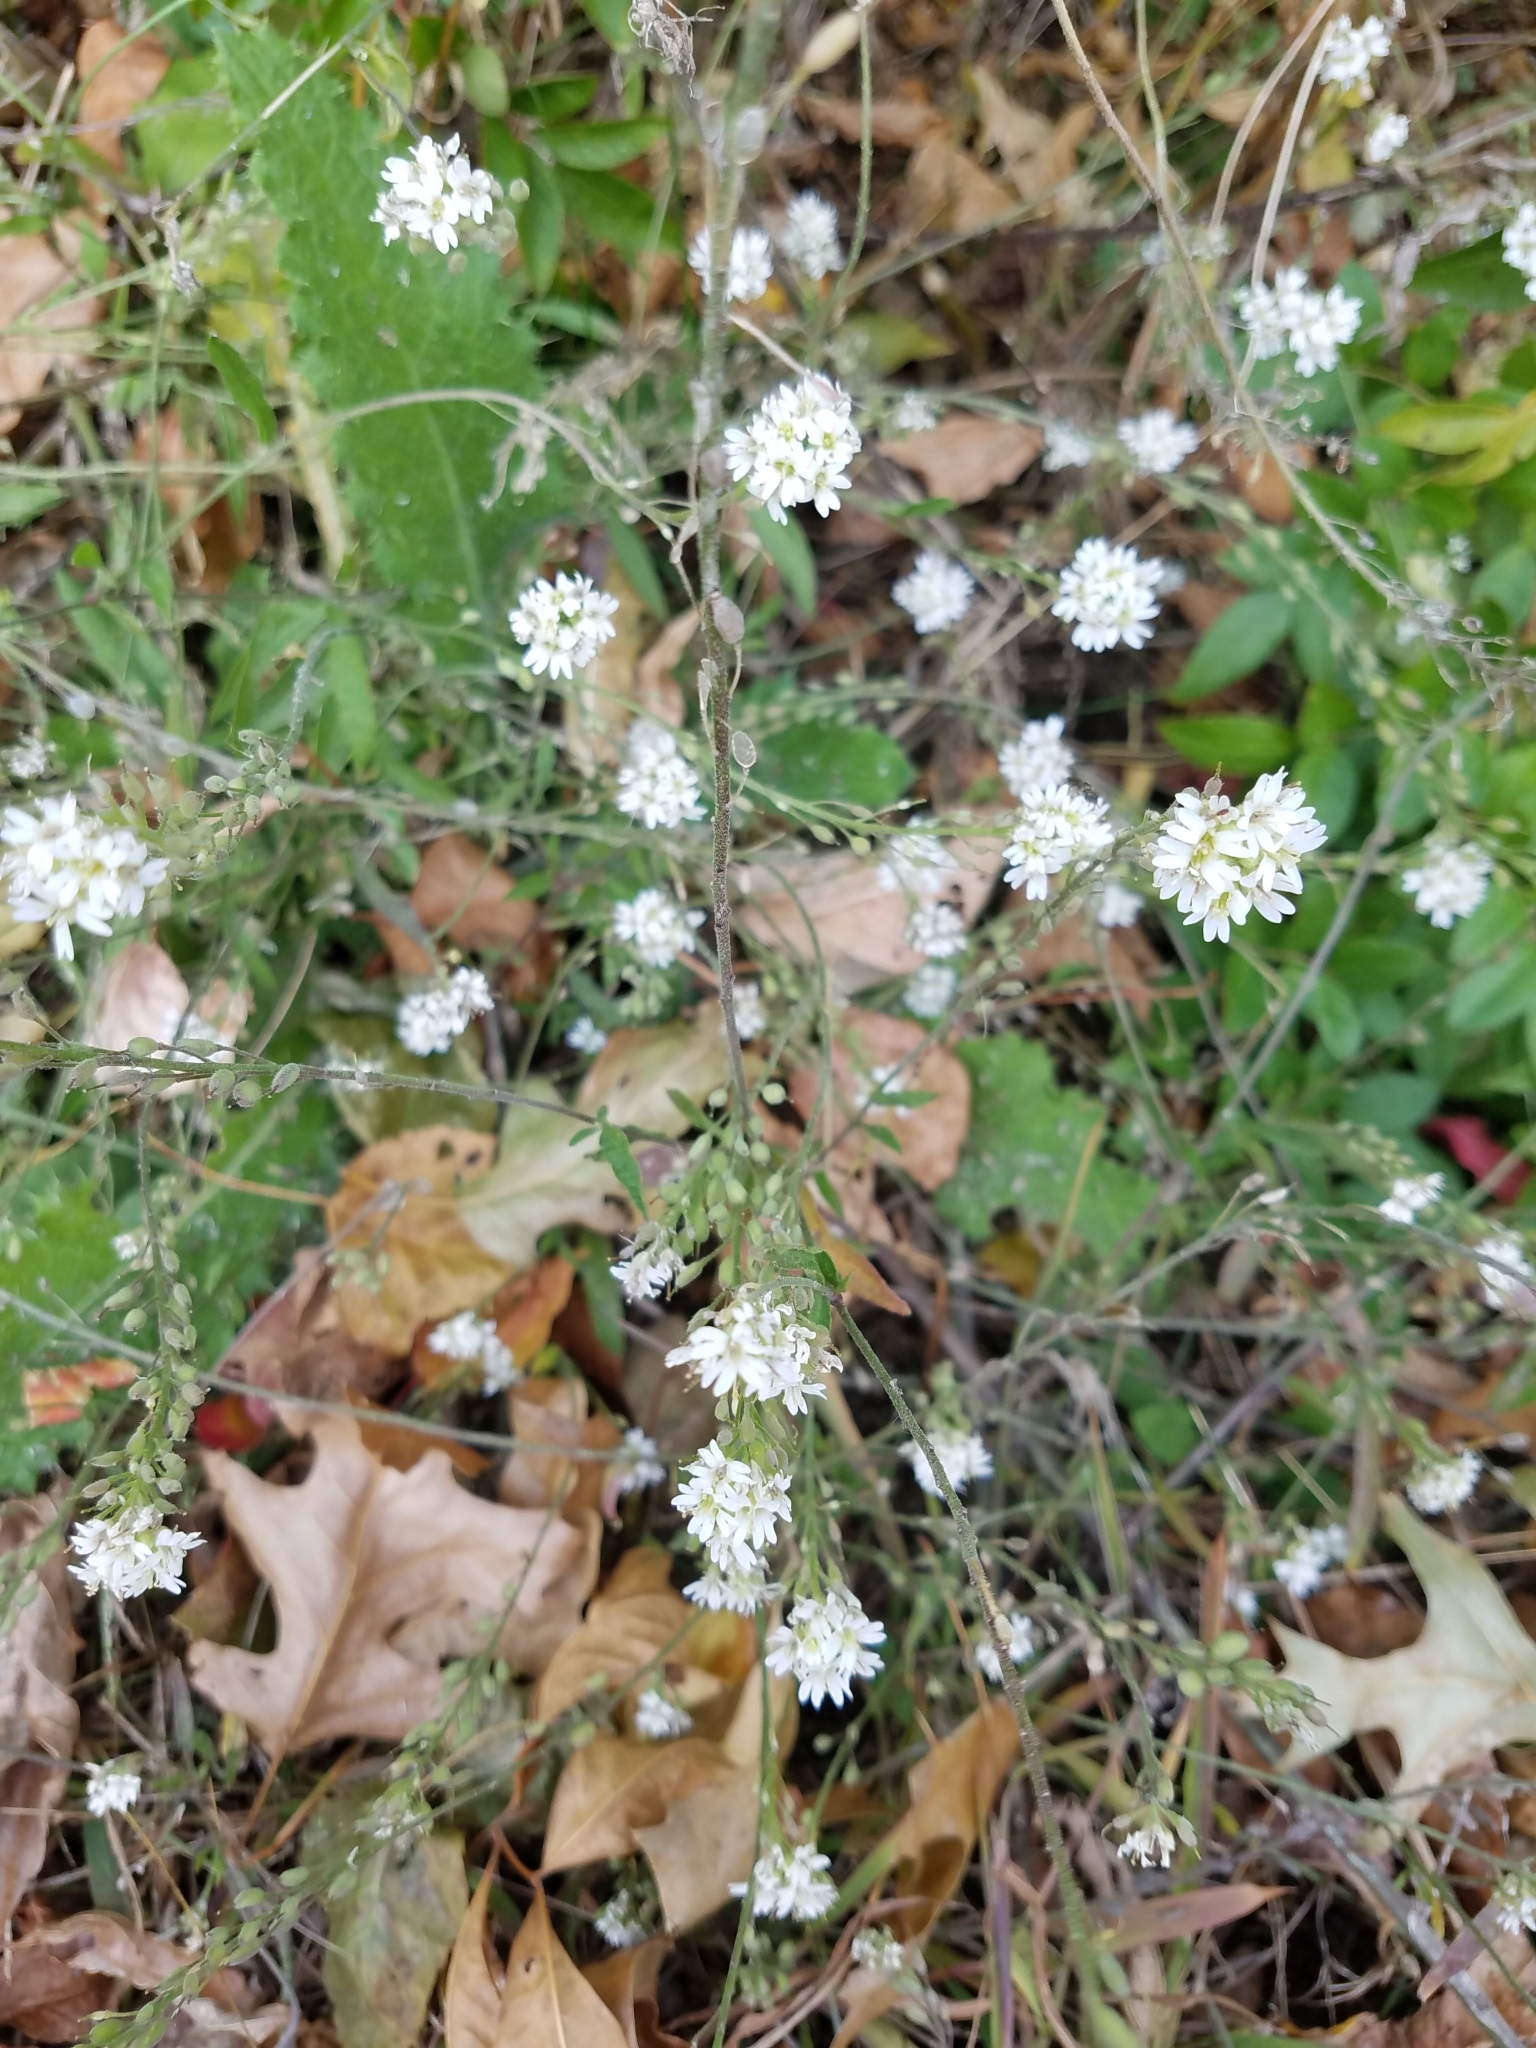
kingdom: Plantae
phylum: Tracheophyta
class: Magnoliopsida
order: Brassicales
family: Brassicaceae
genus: Berteroa
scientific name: Berteroa incana
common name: Hoary alison
